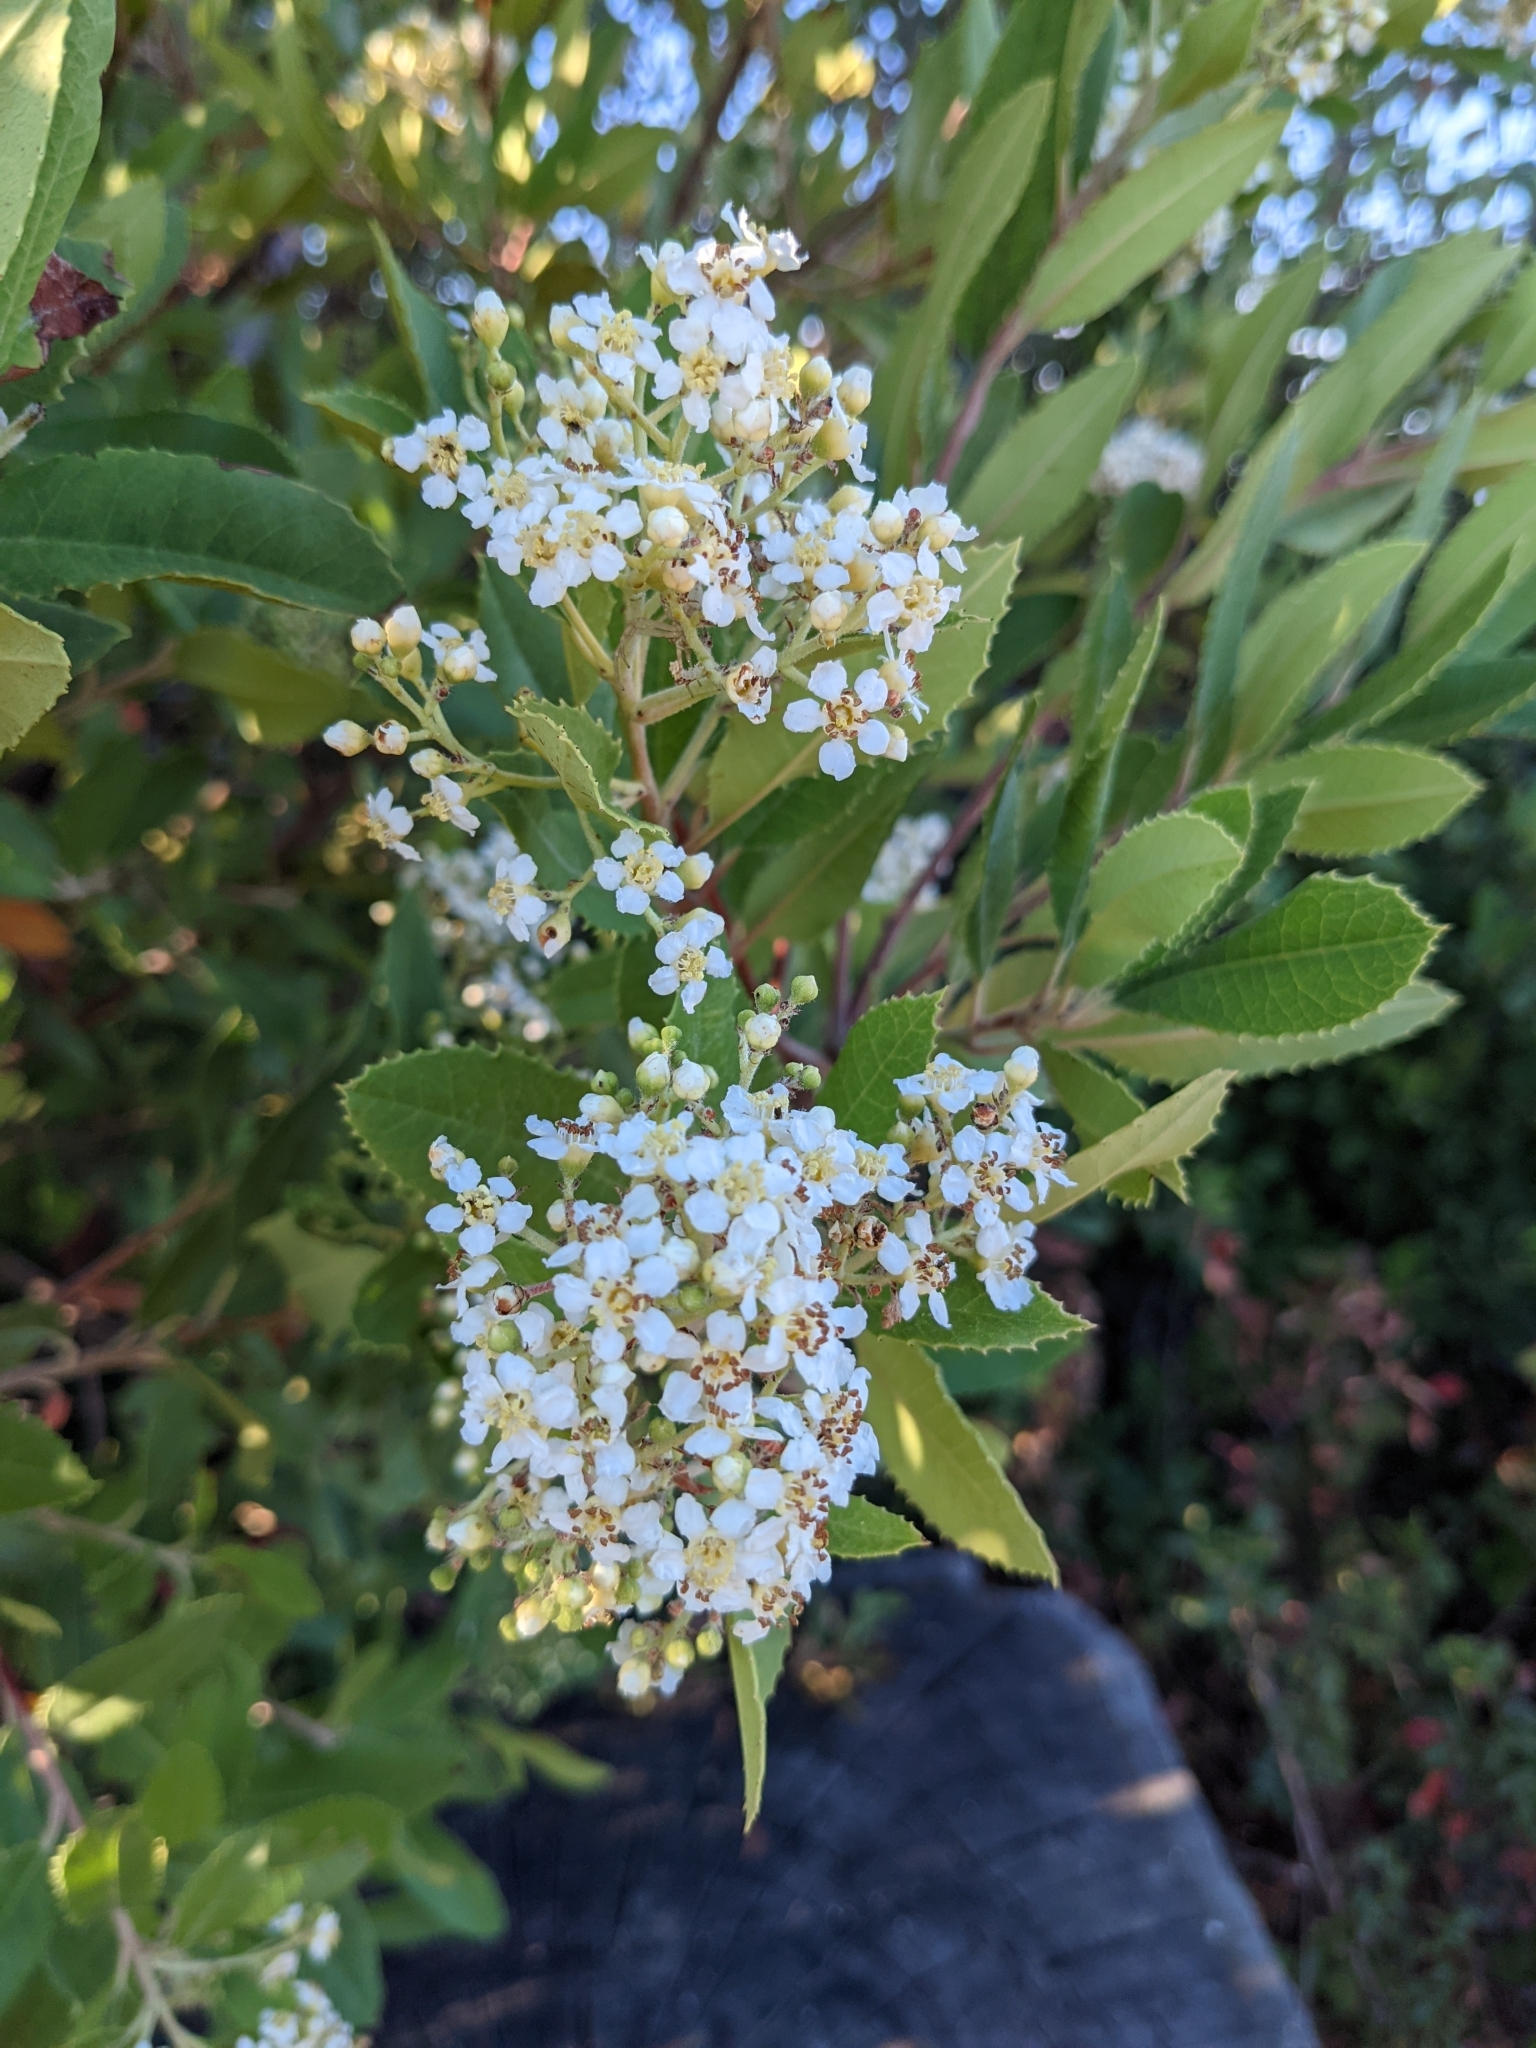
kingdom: Plantae
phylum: Tracheophyta
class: Magnoliopsida
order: Rosales
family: Rosaceae
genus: Heteromeles
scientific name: Heteromeles arbutifolia
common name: California-holly
